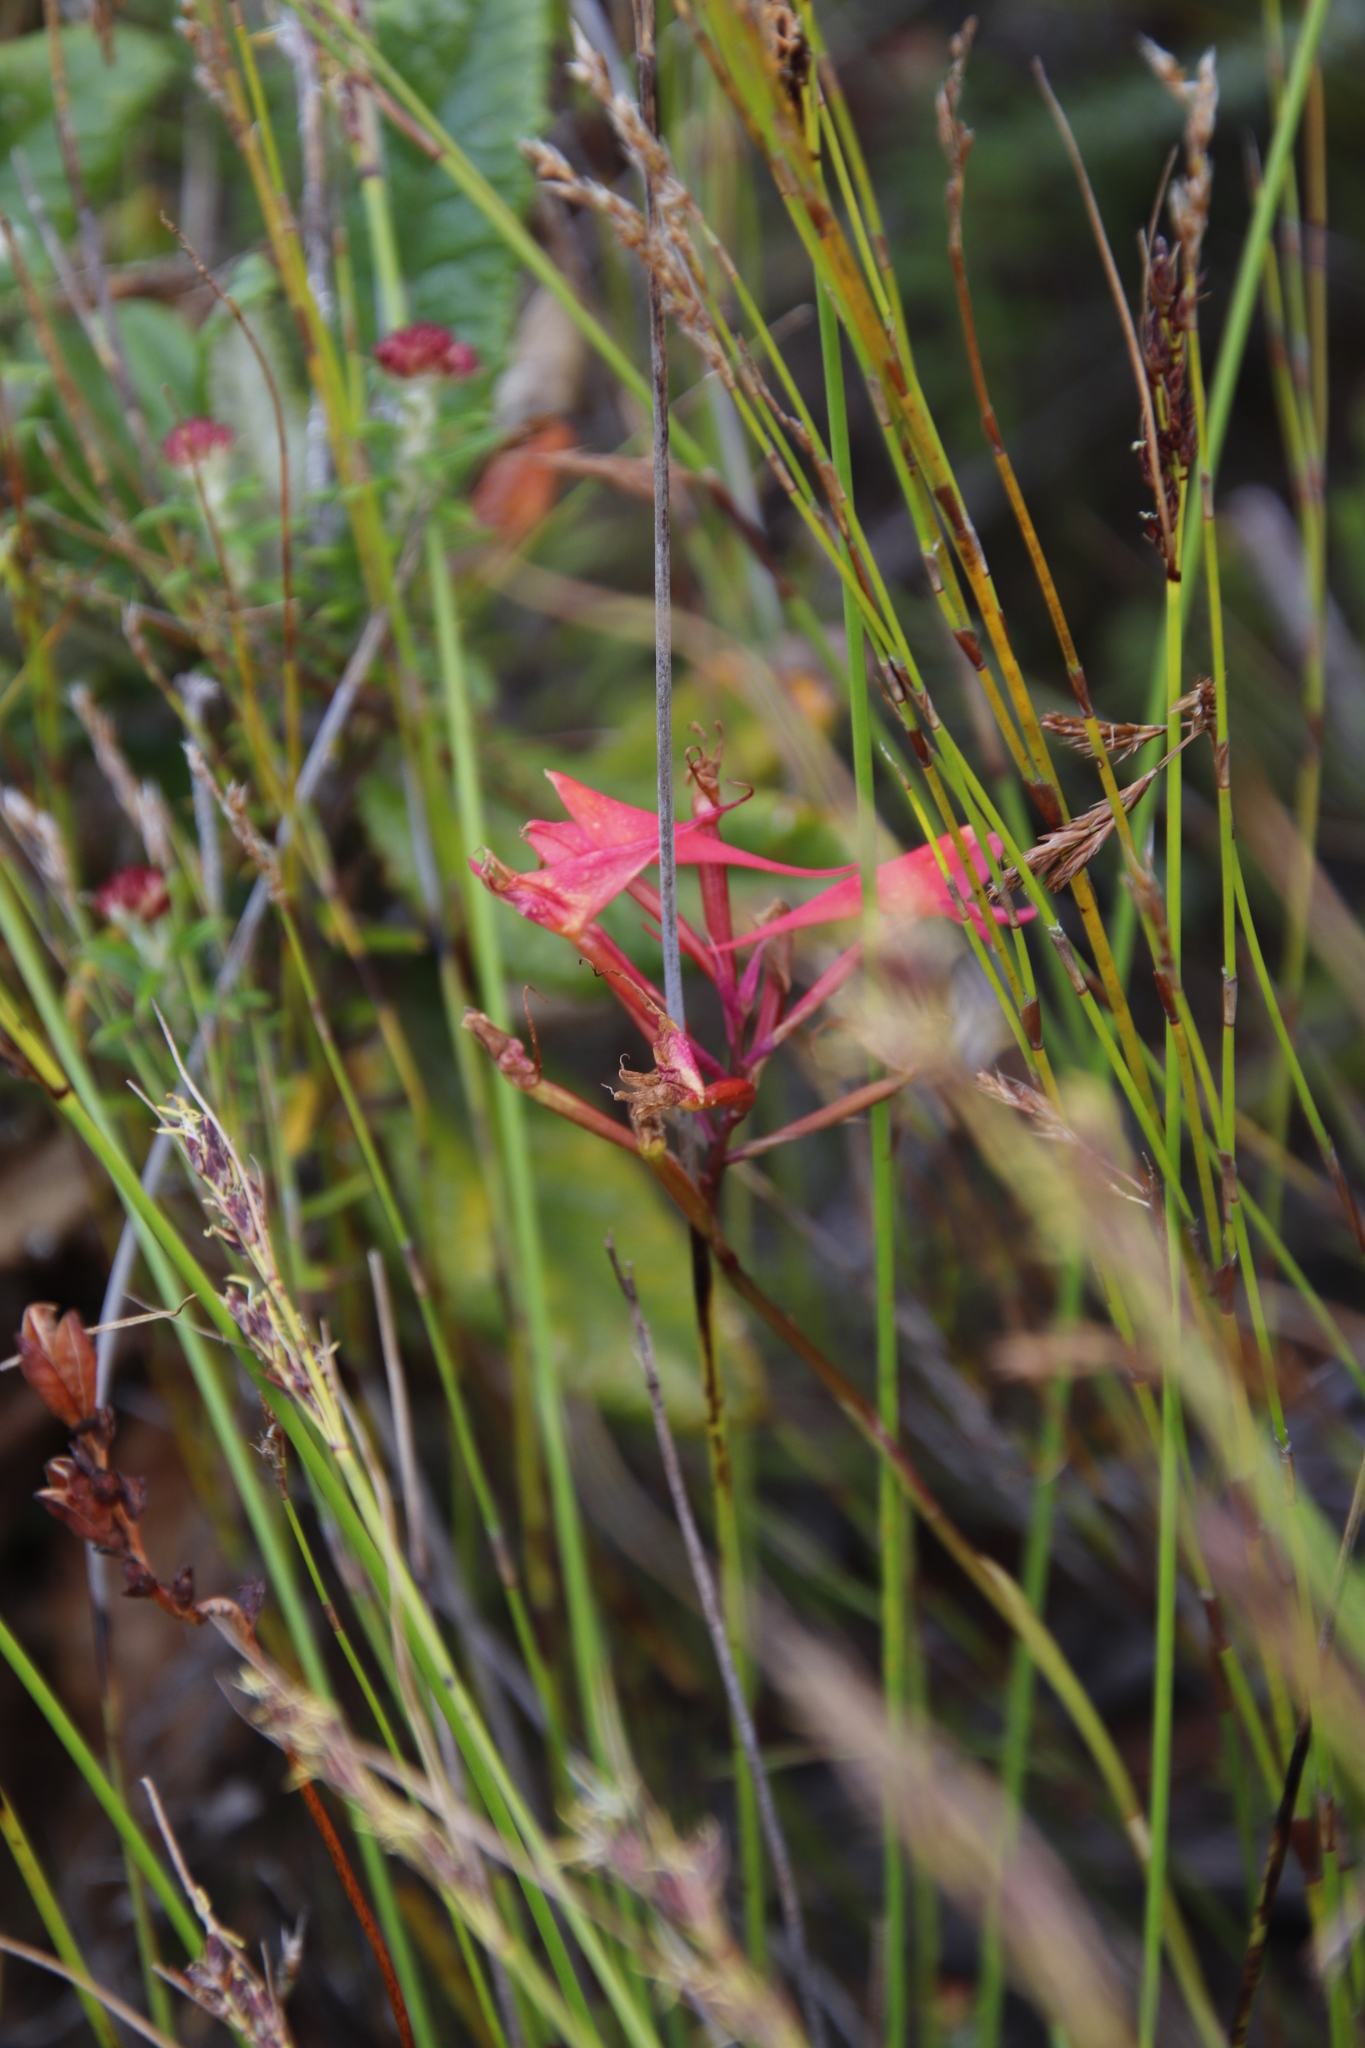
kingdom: Plantae
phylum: Tracheophyta
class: Liliopsida
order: Asparagales
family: Orchidaceae
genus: Disa
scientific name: Disa ferruginea
